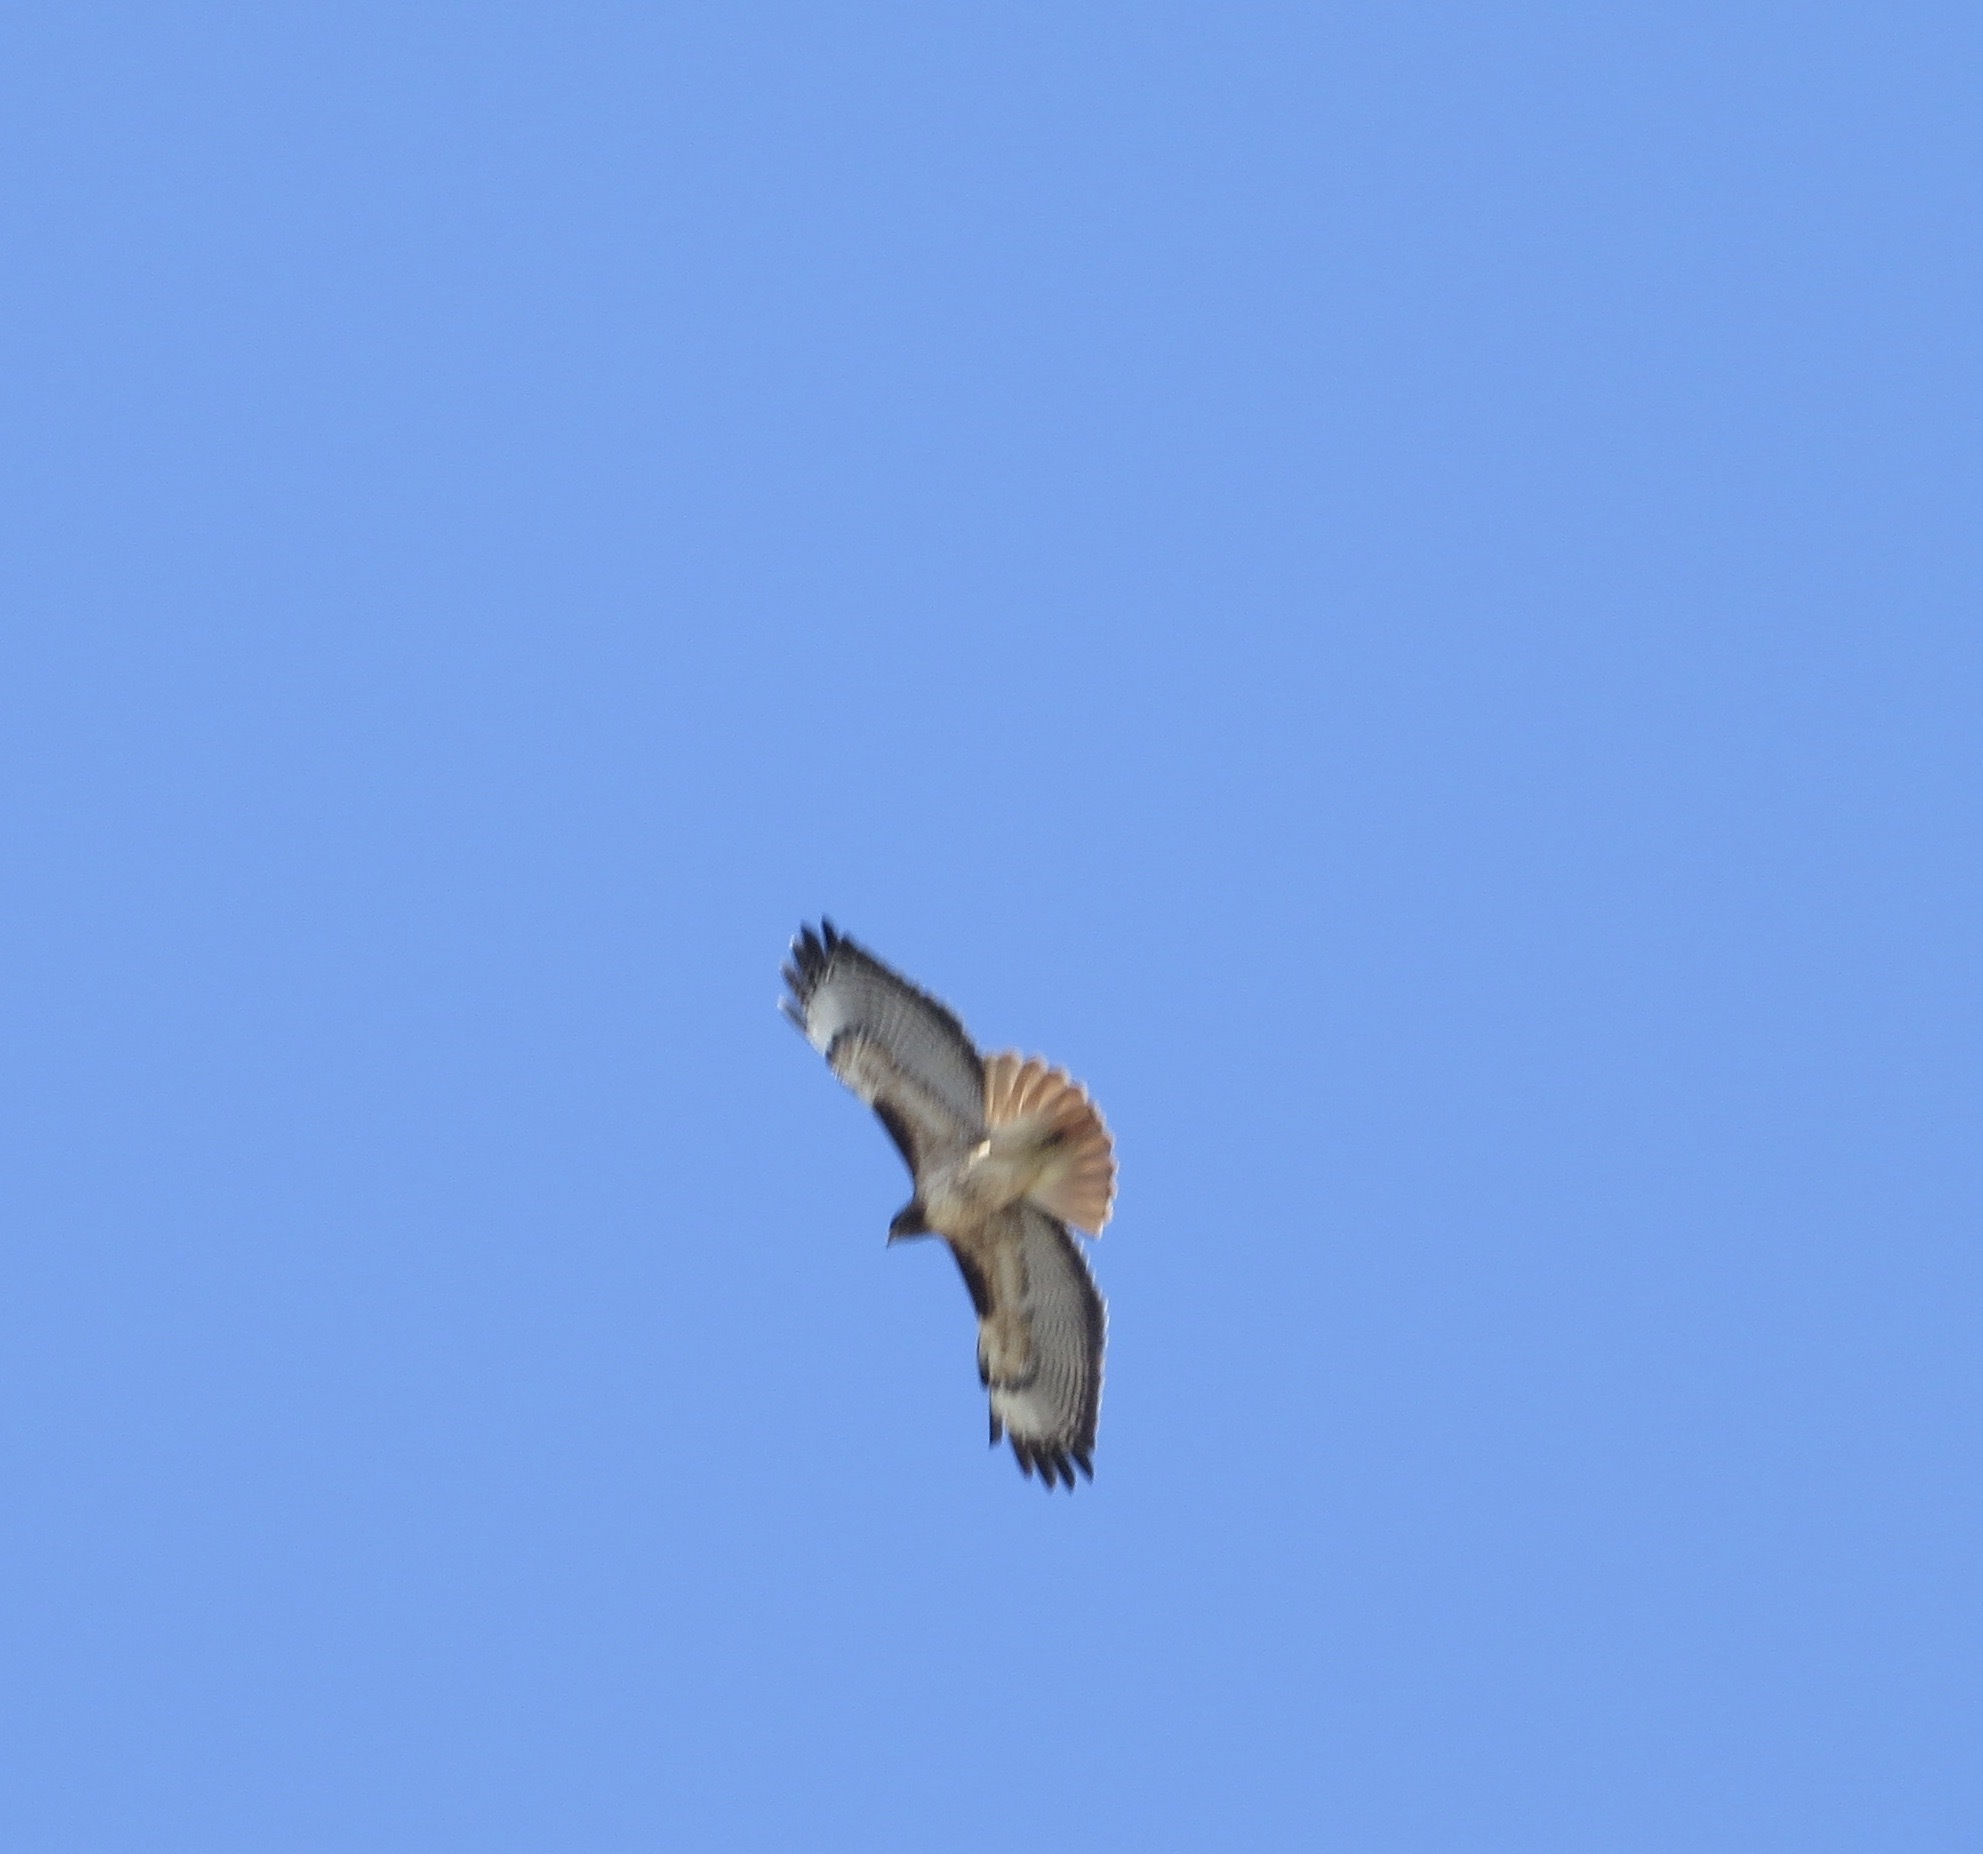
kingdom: Animalia
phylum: Chordata
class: Aves
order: Accipitriformes
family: Accipitridae
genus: Buteo
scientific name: Buteo jamaicensis
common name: Red-tailed hawk
